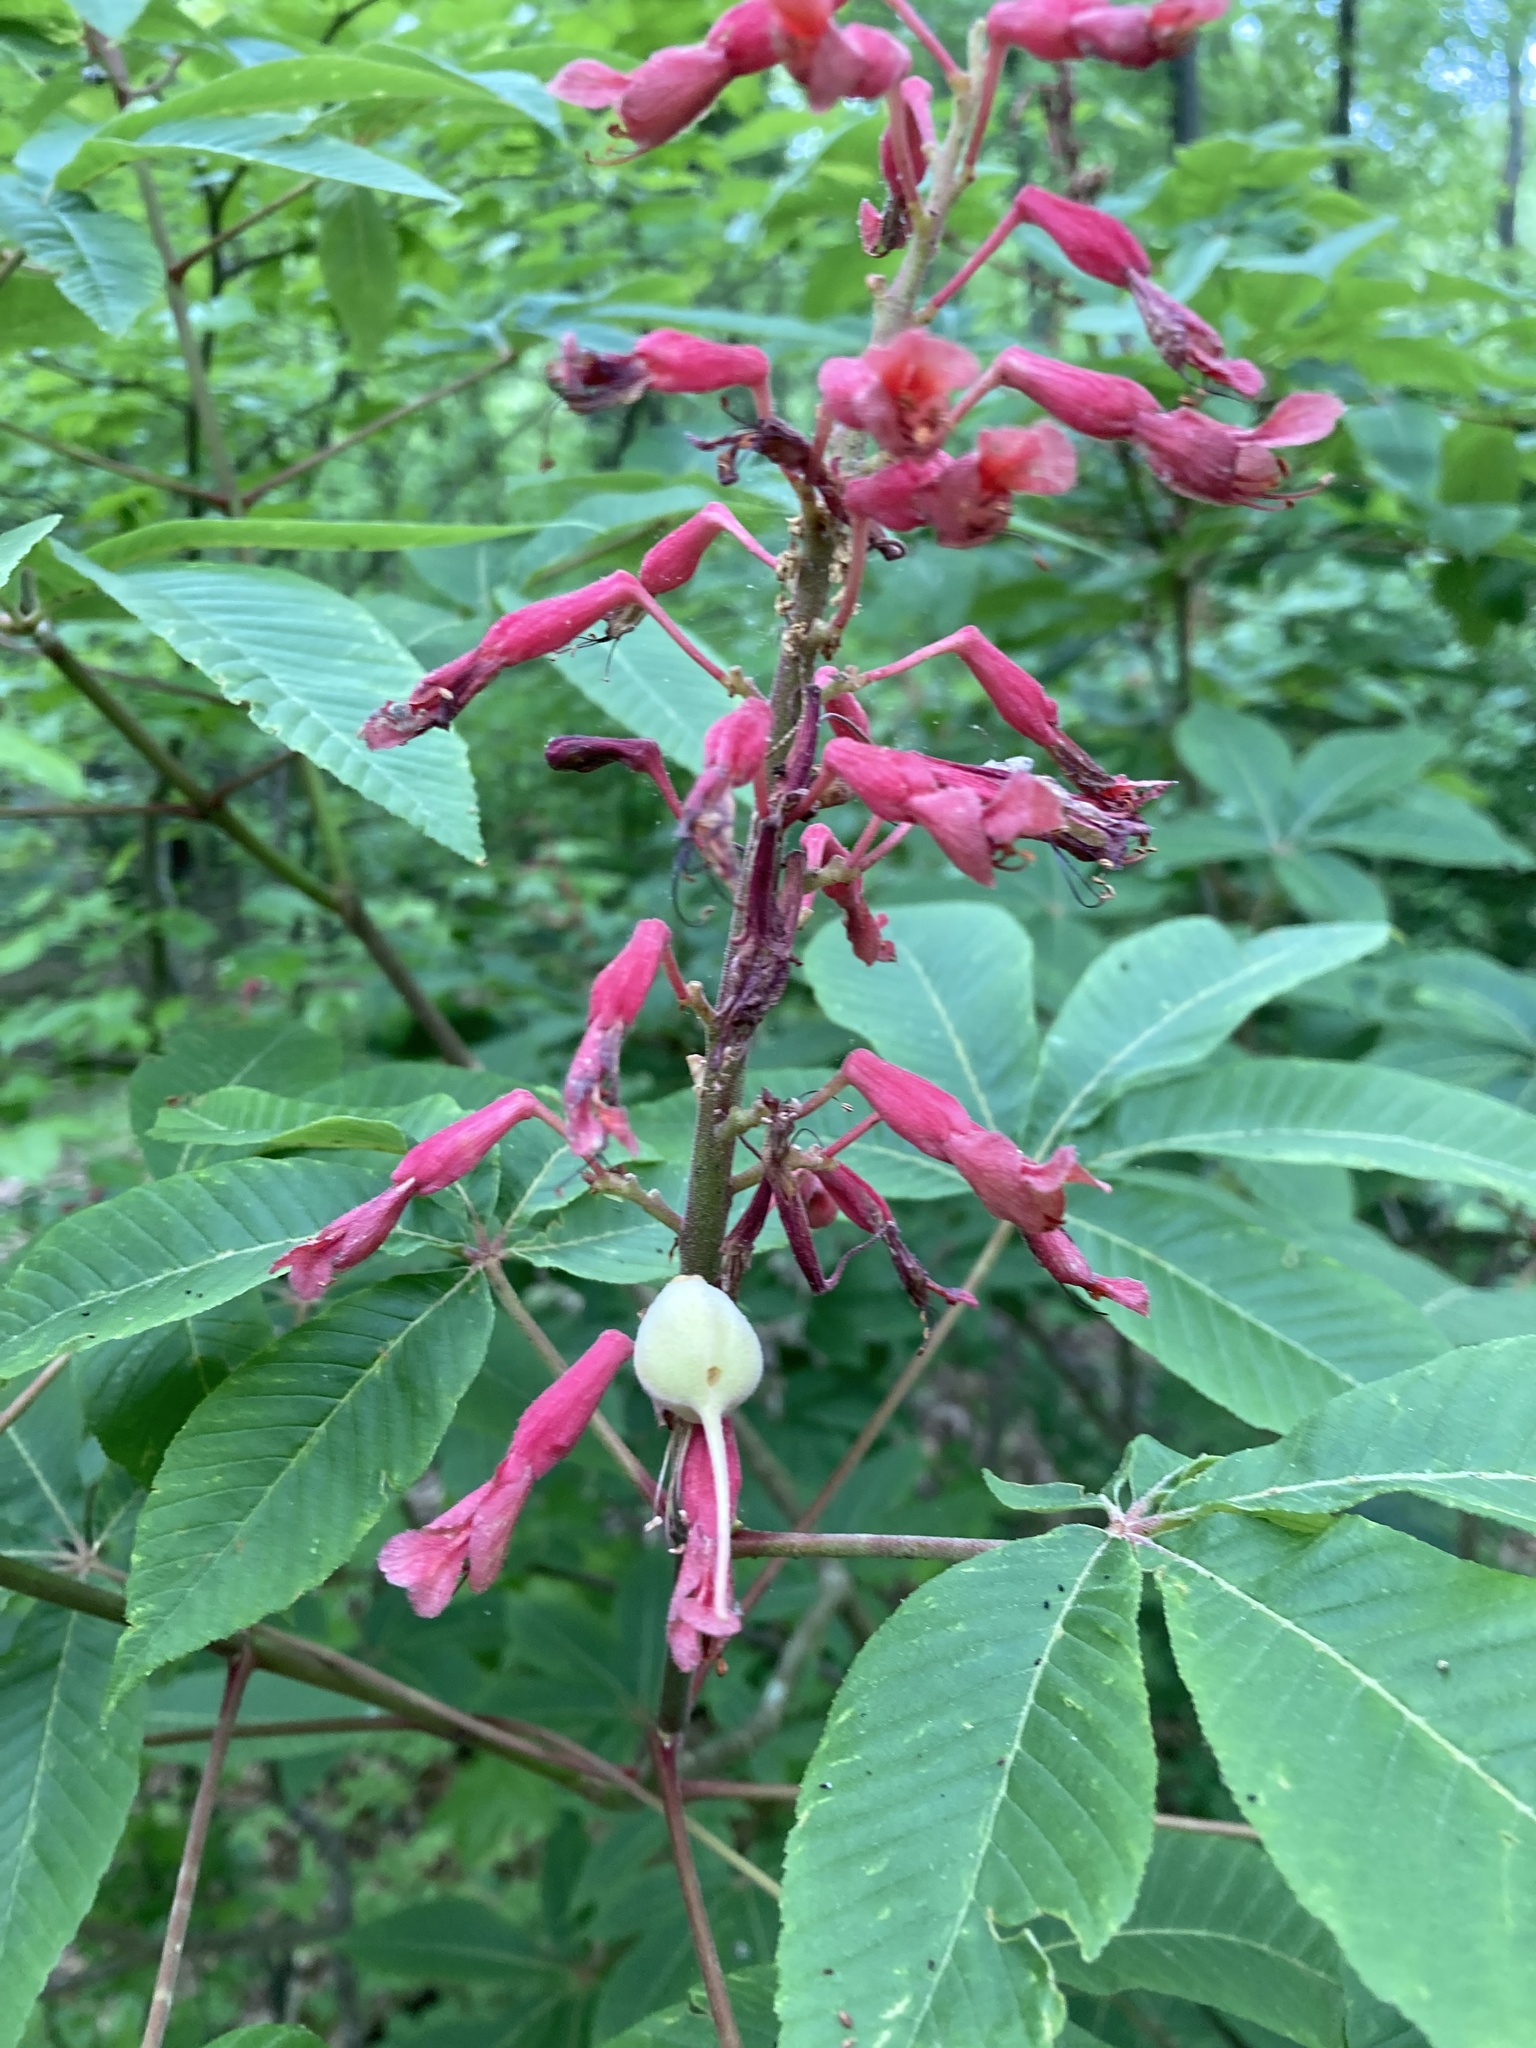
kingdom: Plantae
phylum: Tracheophyta
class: Magnoliopsida
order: Sapindales
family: Sapindaceae
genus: Aesculus
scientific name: Aesculus pavia
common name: Red buckeye
